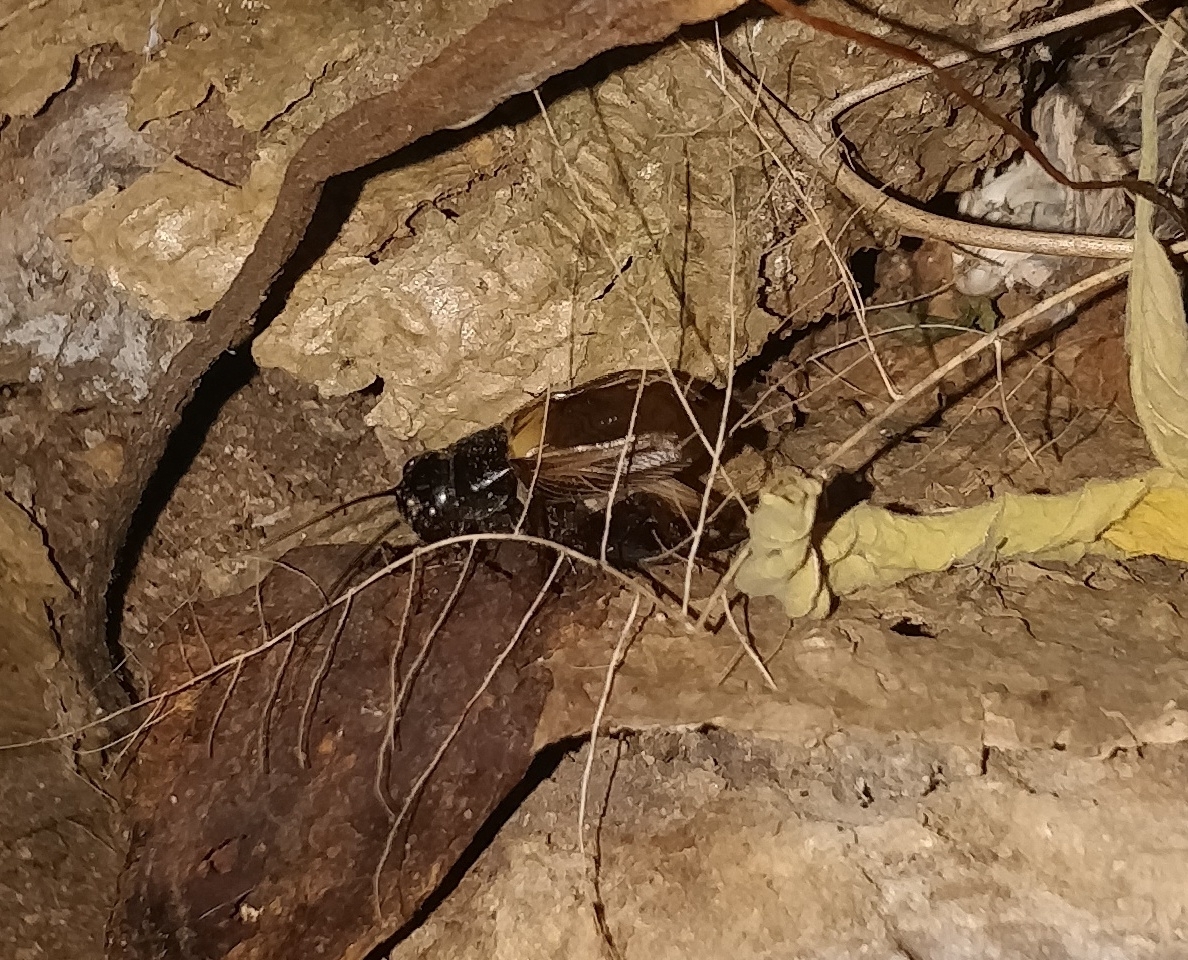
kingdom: Animalia
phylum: Arthropoda
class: Insecta
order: Orthoptera
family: Gryllidae
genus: Gryllus
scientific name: Gryllus bimaculatus
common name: Two-spotted cricket
